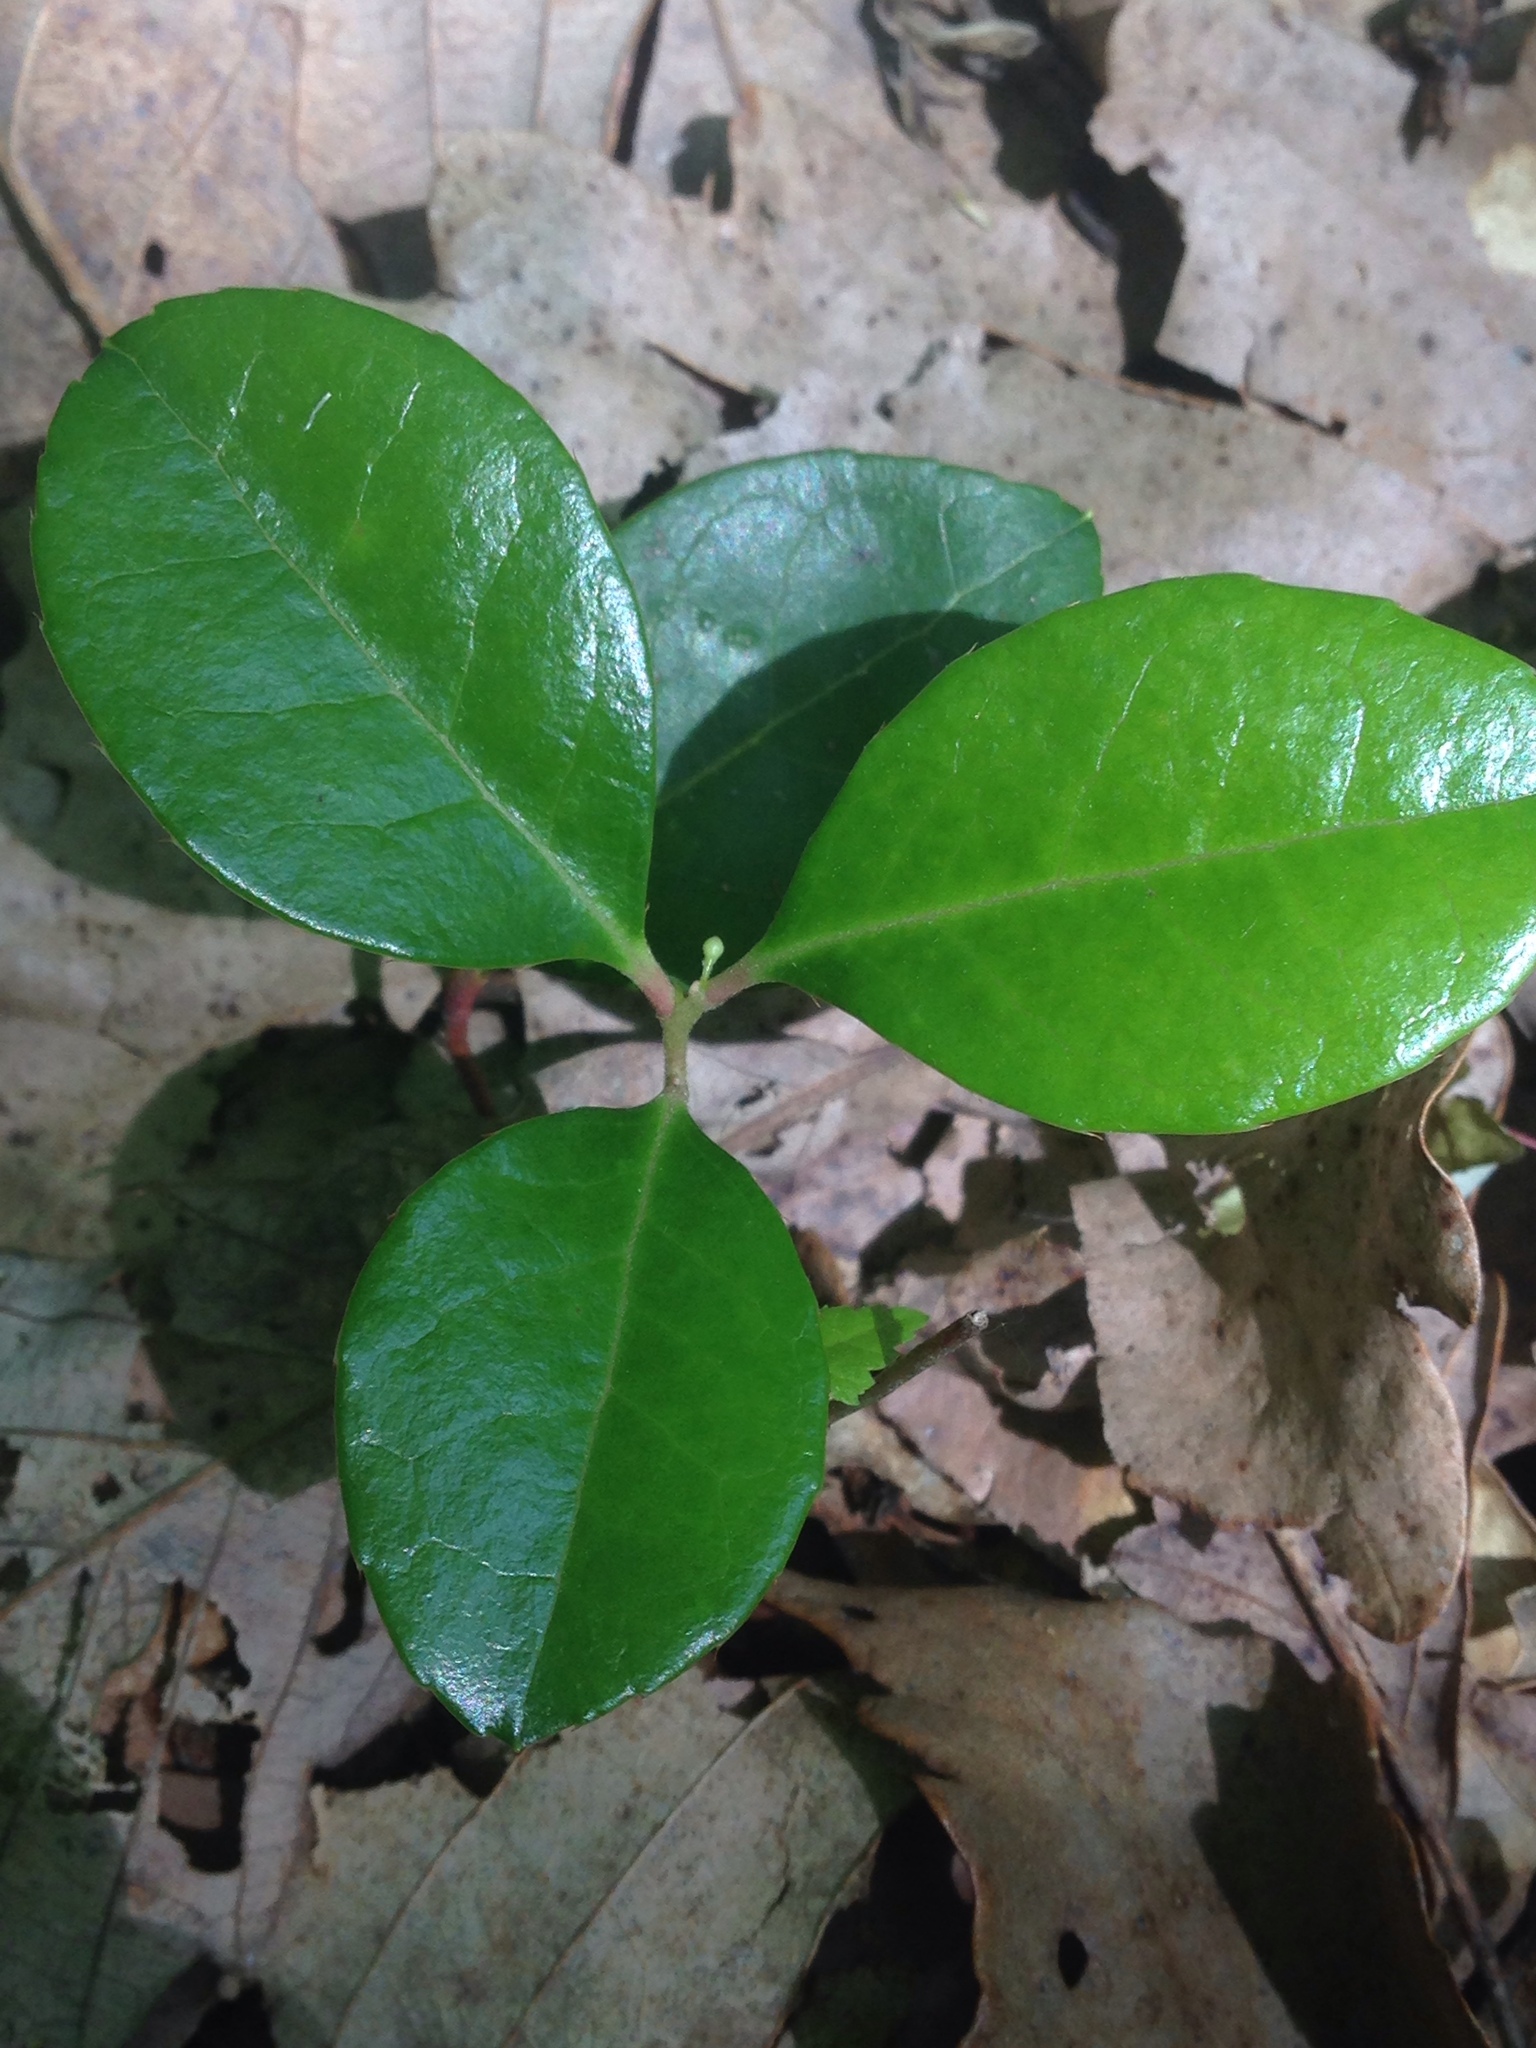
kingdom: Plantae
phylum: Tracheophyta
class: Magnoliopsida
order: Ericales
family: Ericaceae
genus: Gaultheria
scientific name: Gaultheria procumbens
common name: Checkerberry
